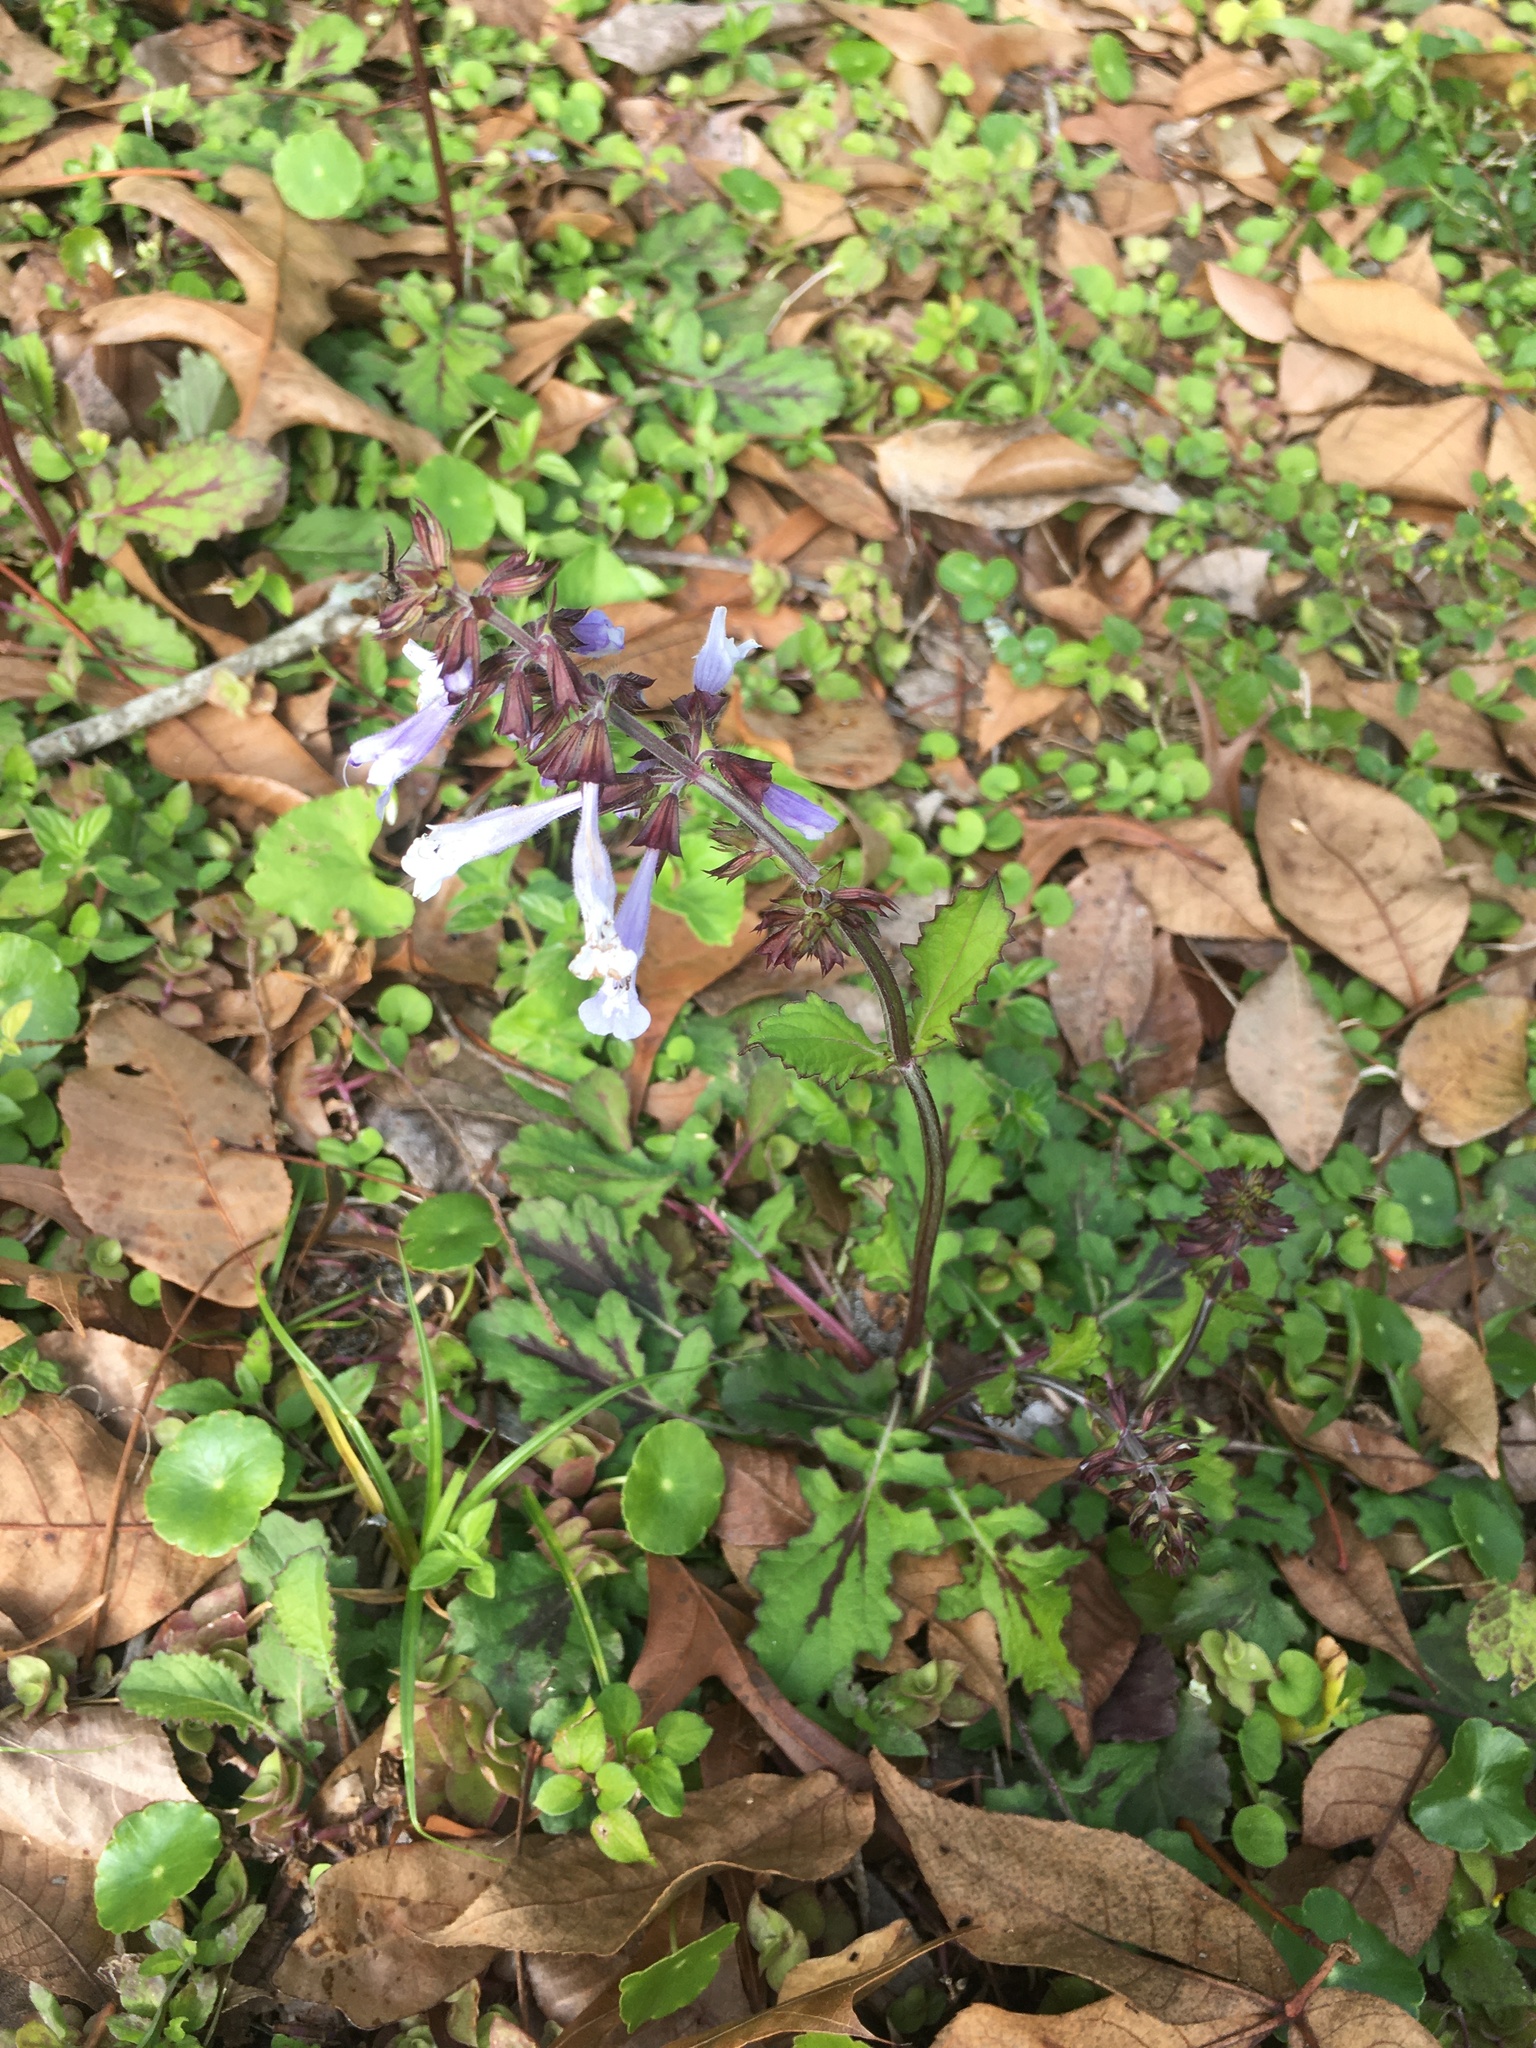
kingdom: Plantae
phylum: Tracheophyta
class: Magnoliopsida
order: Lamiales
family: Lamiaceae
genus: Salvia
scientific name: Salvia lyrata
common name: Cancerweed
